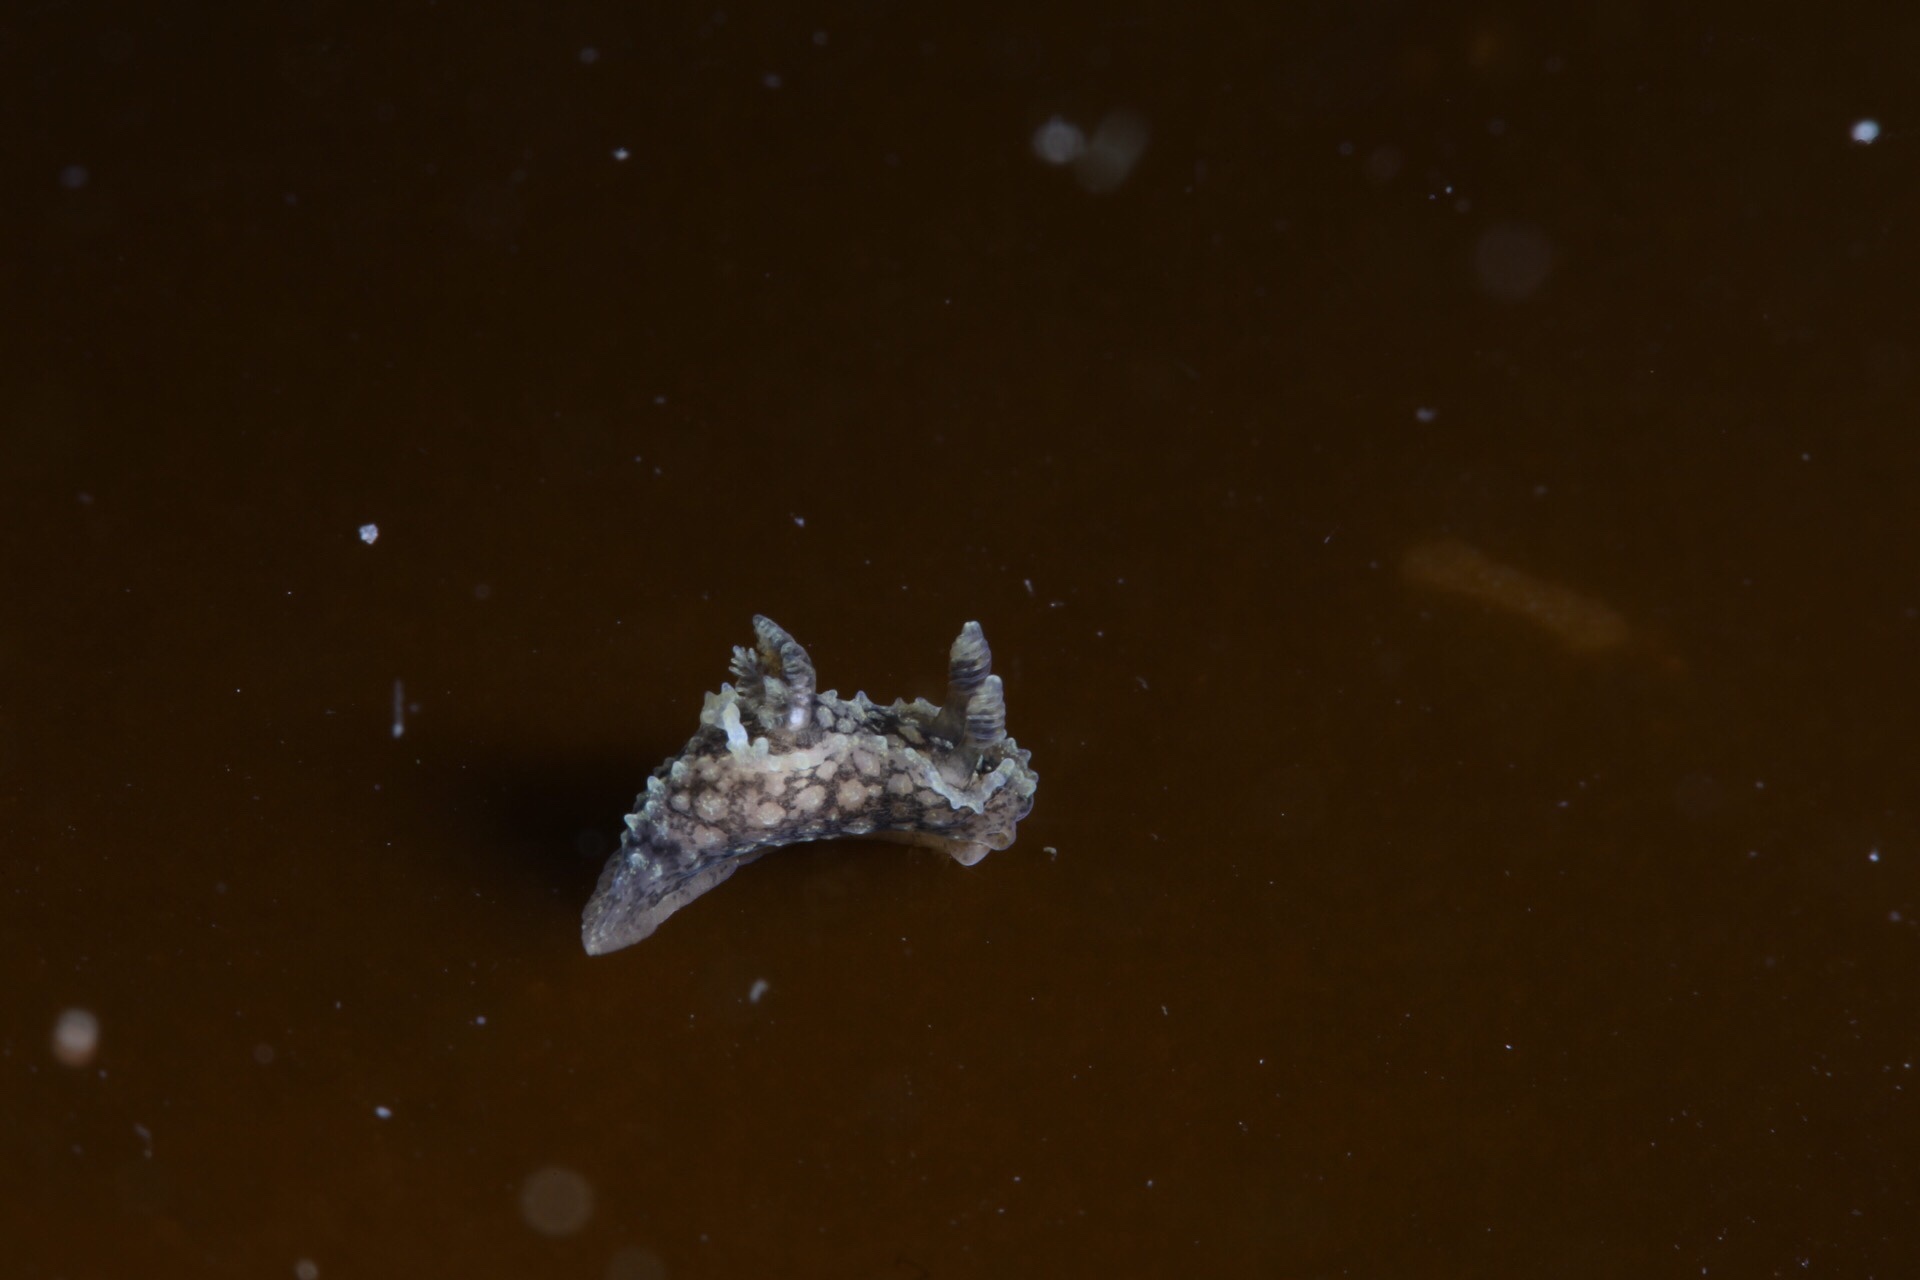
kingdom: Animalia
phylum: Mollusca
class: Gastropoda
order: Nudibranchia
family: Polyceridae
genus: Palio
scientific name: Palio nothus
